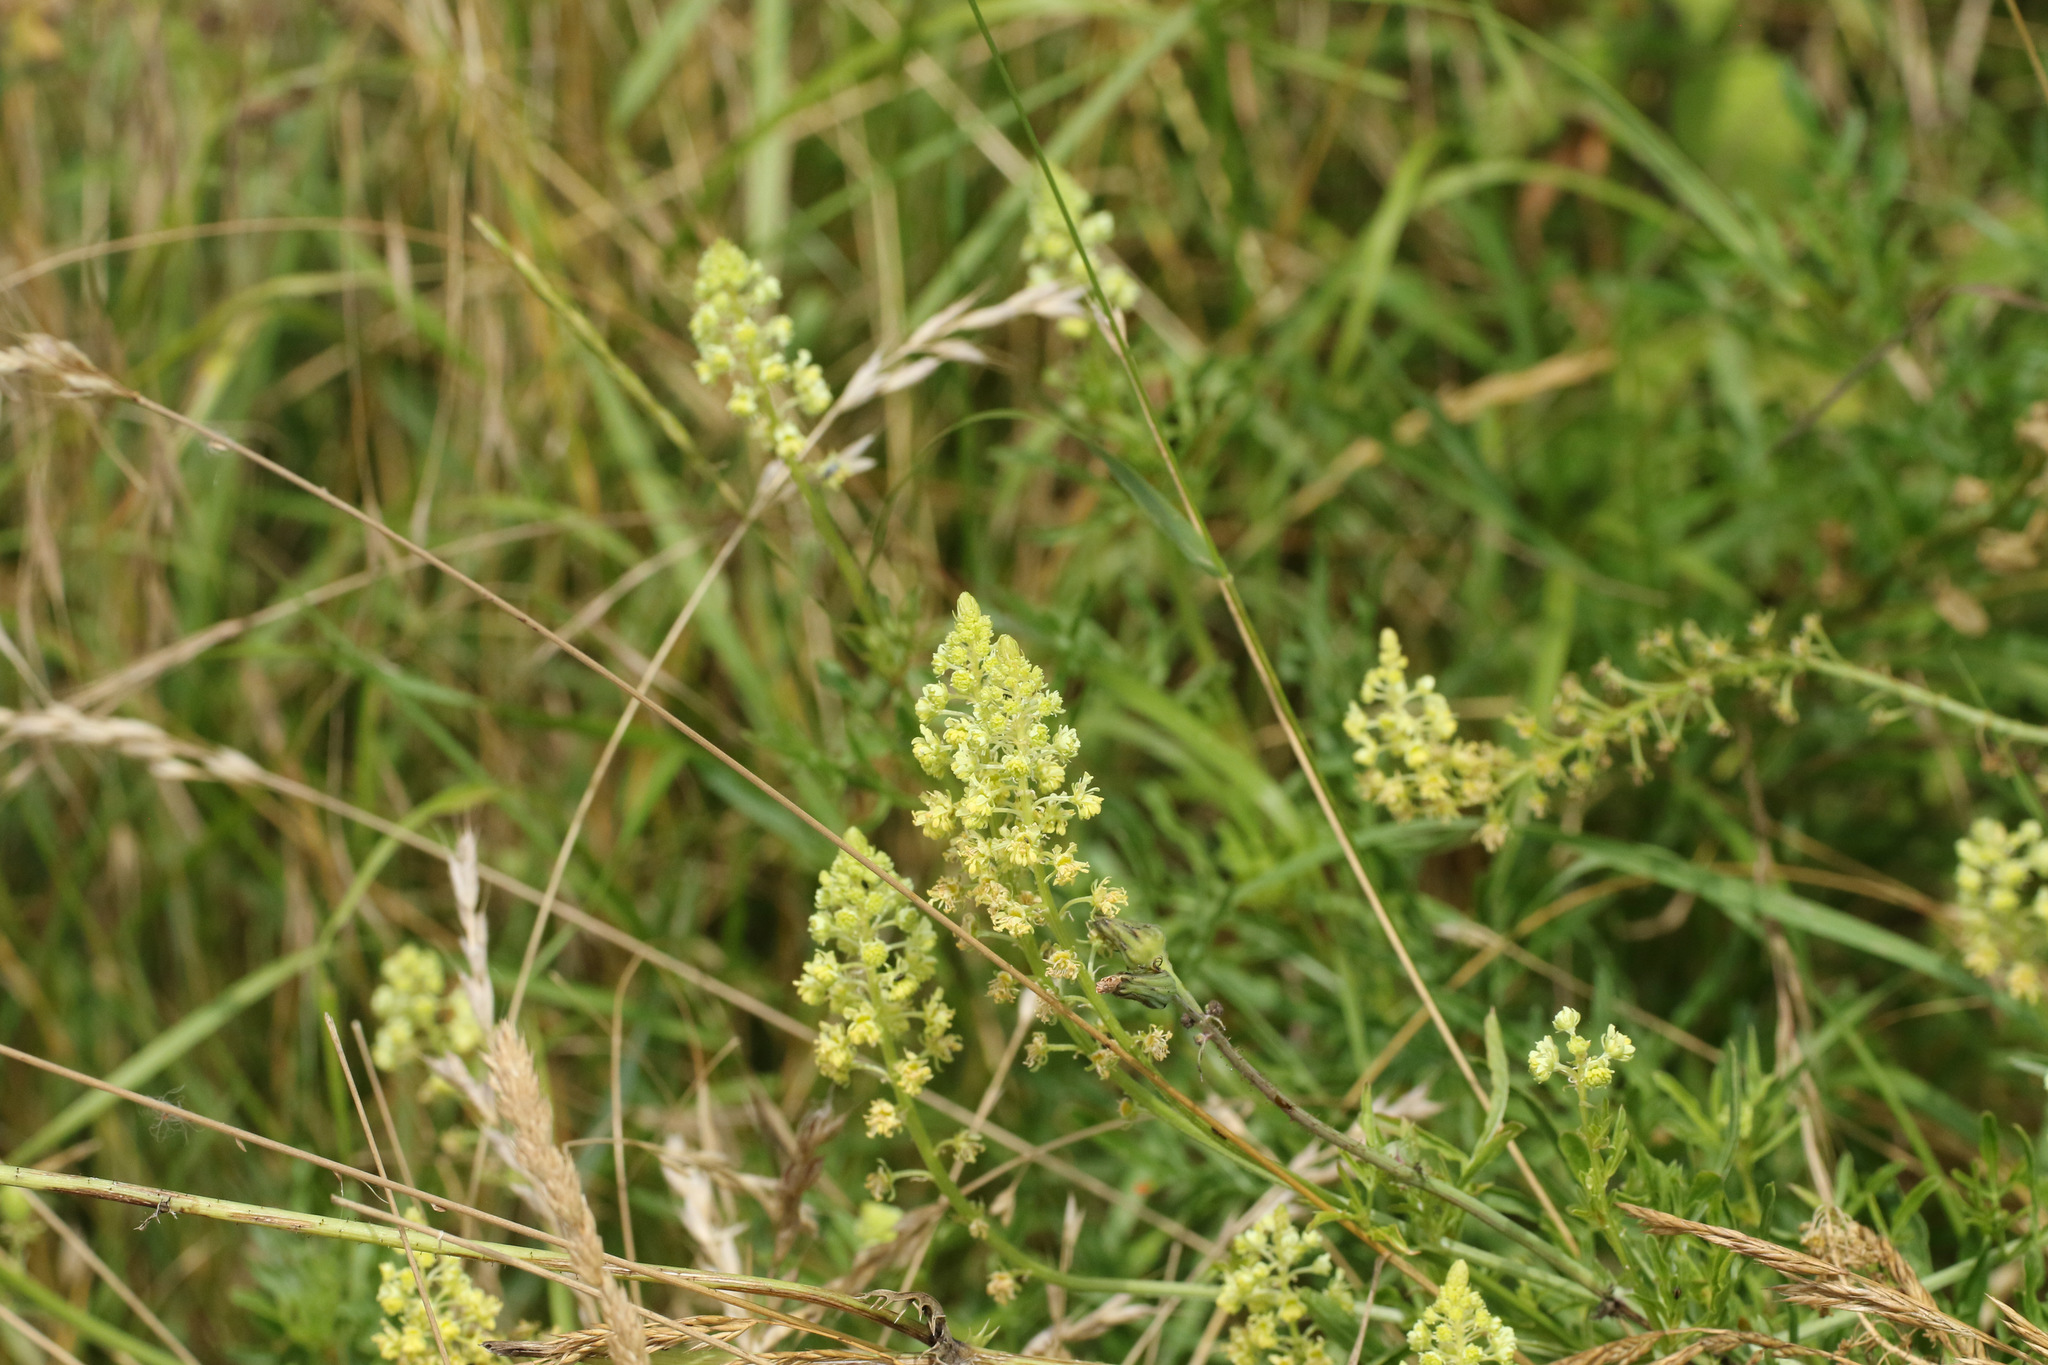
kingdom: Plantae
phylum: Tracheophyta
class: Magnoliopsida
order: Brassicales
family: Resedaceae
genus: Reseda
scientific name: Reseda lutea
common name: Wild mignonette
